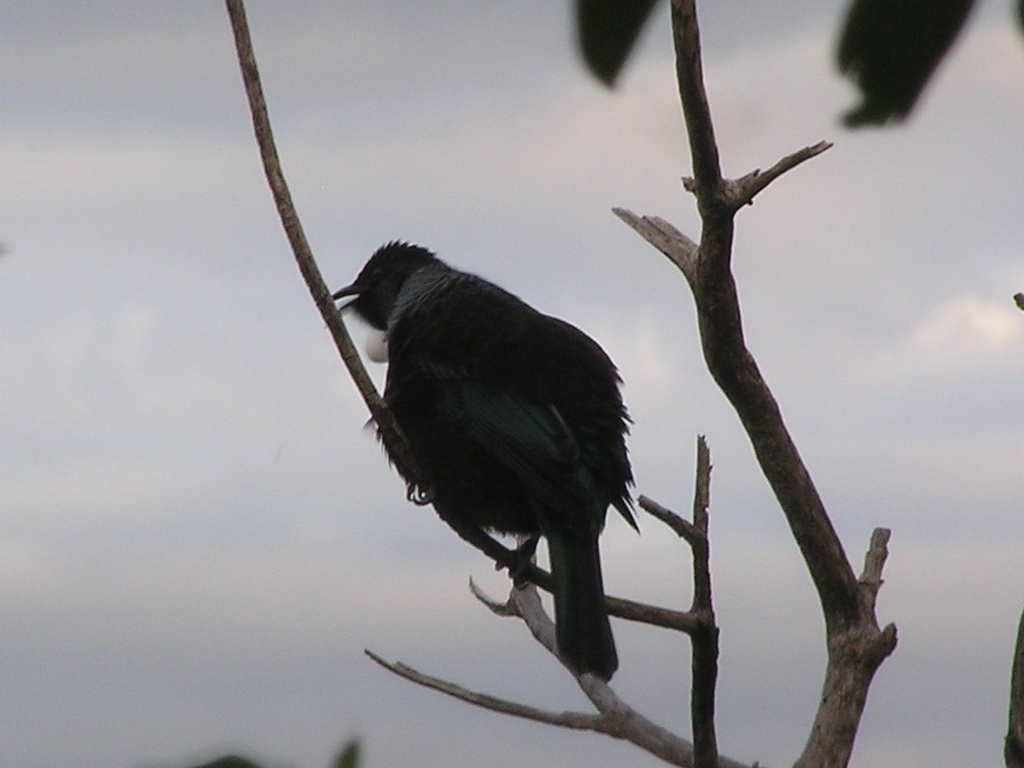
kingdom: Animalia
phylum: Chordata
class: Aves
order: Passeriformes
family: Meliphagidae
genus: Prosthemadera
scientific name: Prosthemadera novaeseelandiae
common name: Tui
